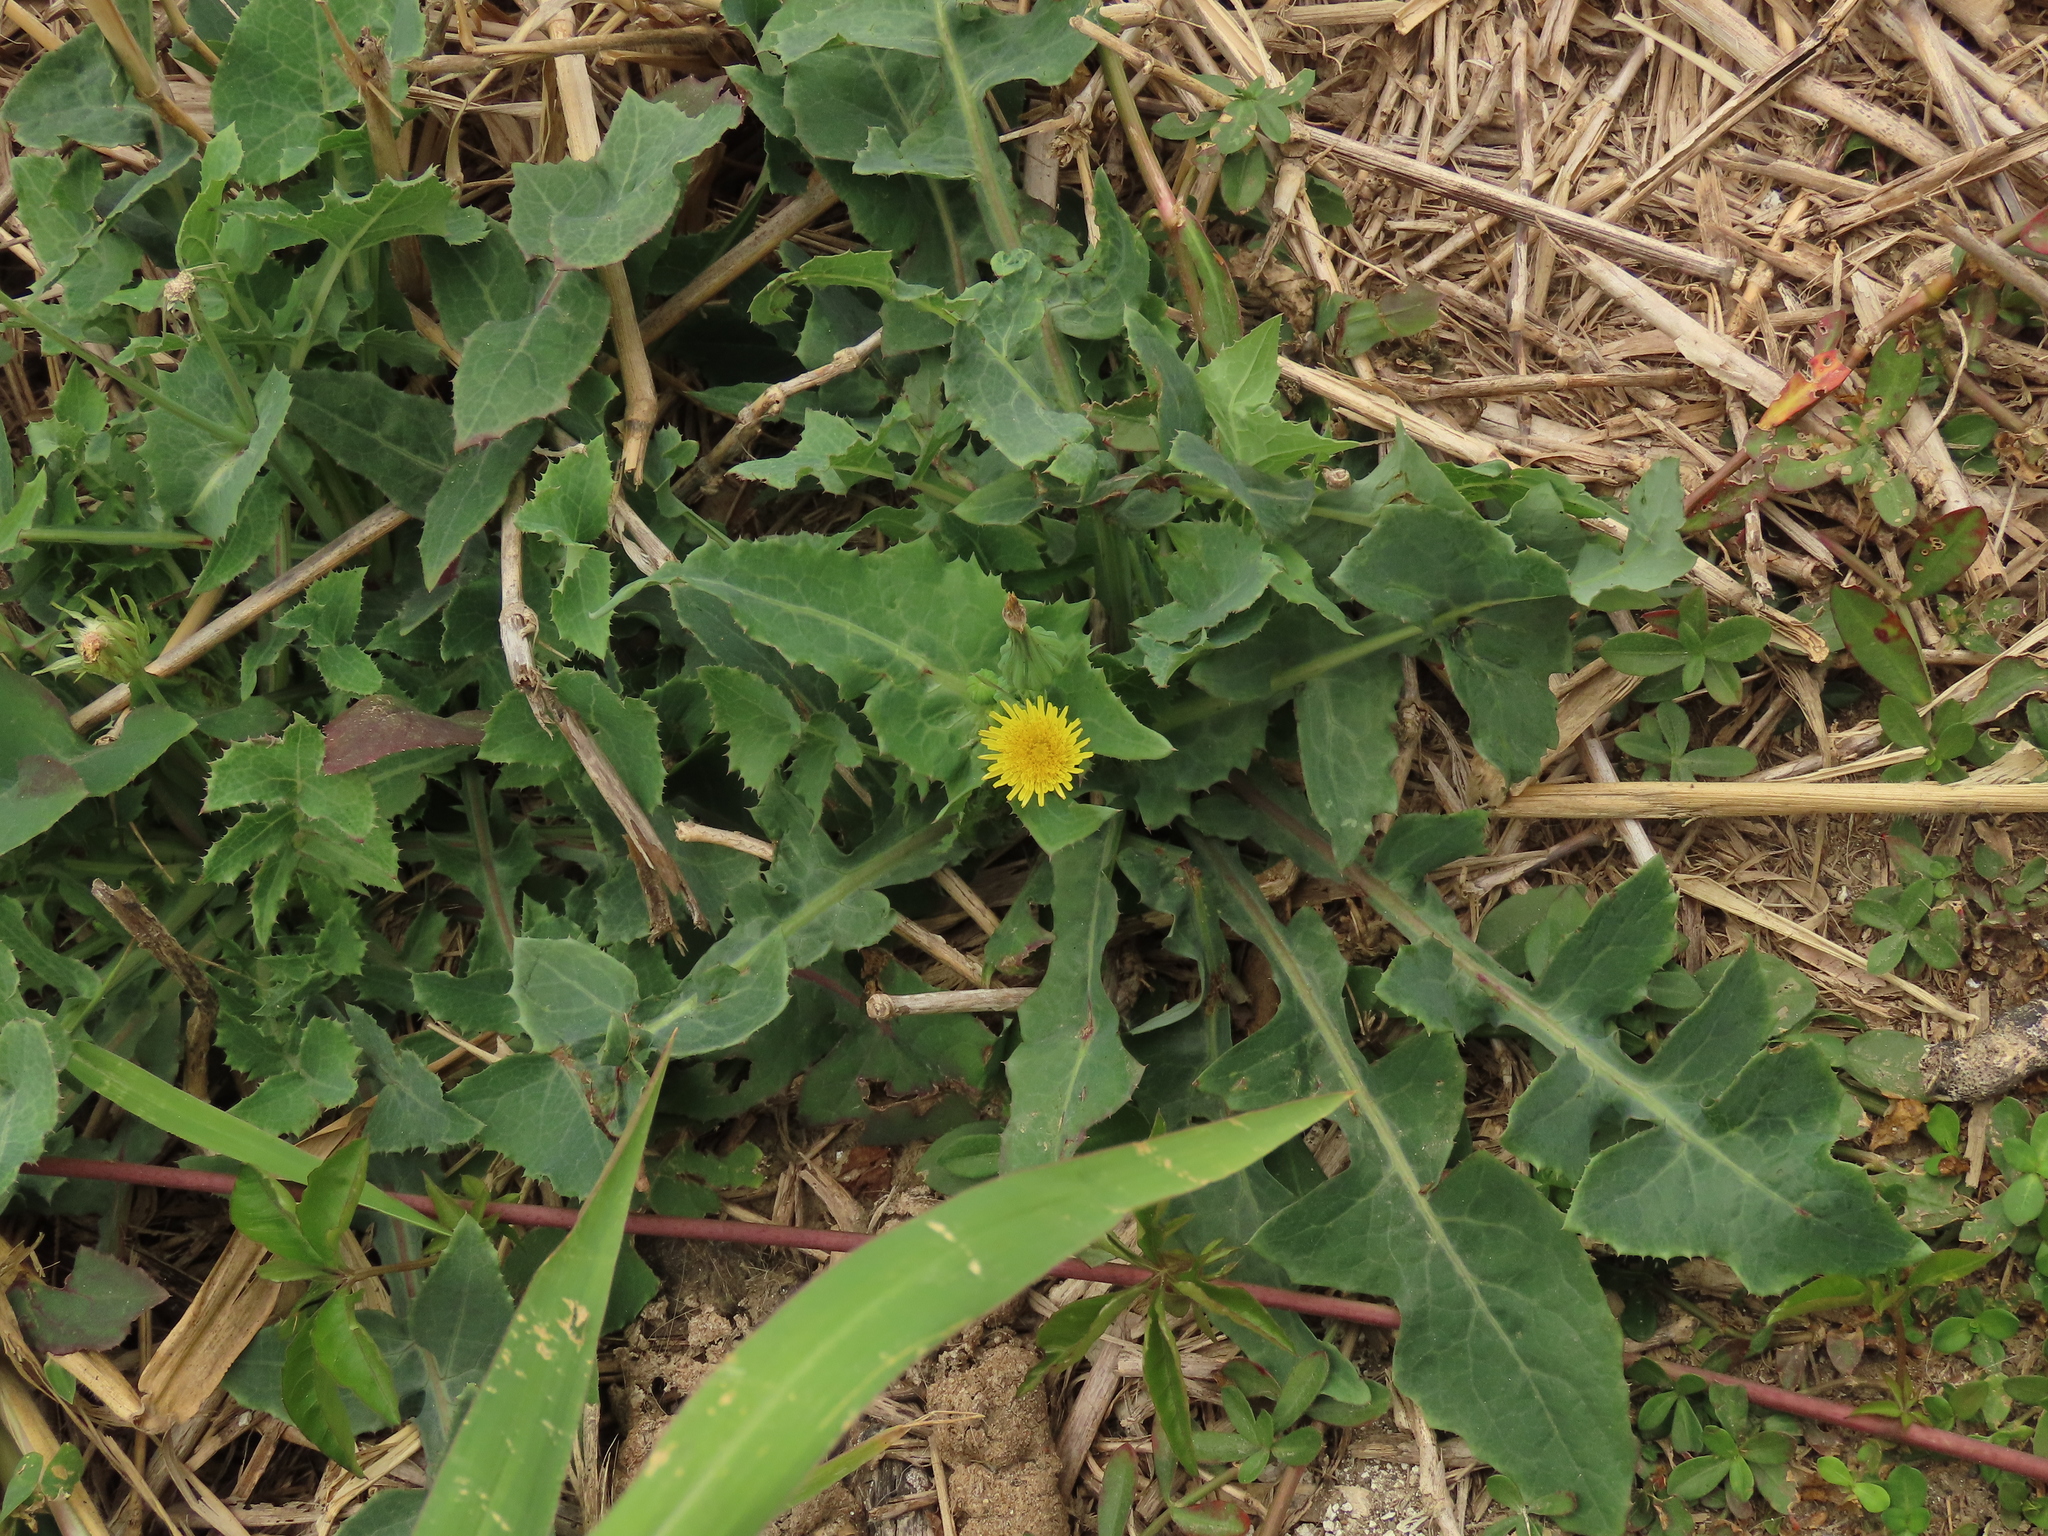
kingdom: Plantae
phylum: Tracheophyta
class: Magnoliopsida
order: Asterales
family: Asteraceae
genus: Sonchus
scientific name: Sonchus oleraceus
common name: Common sowthistle
